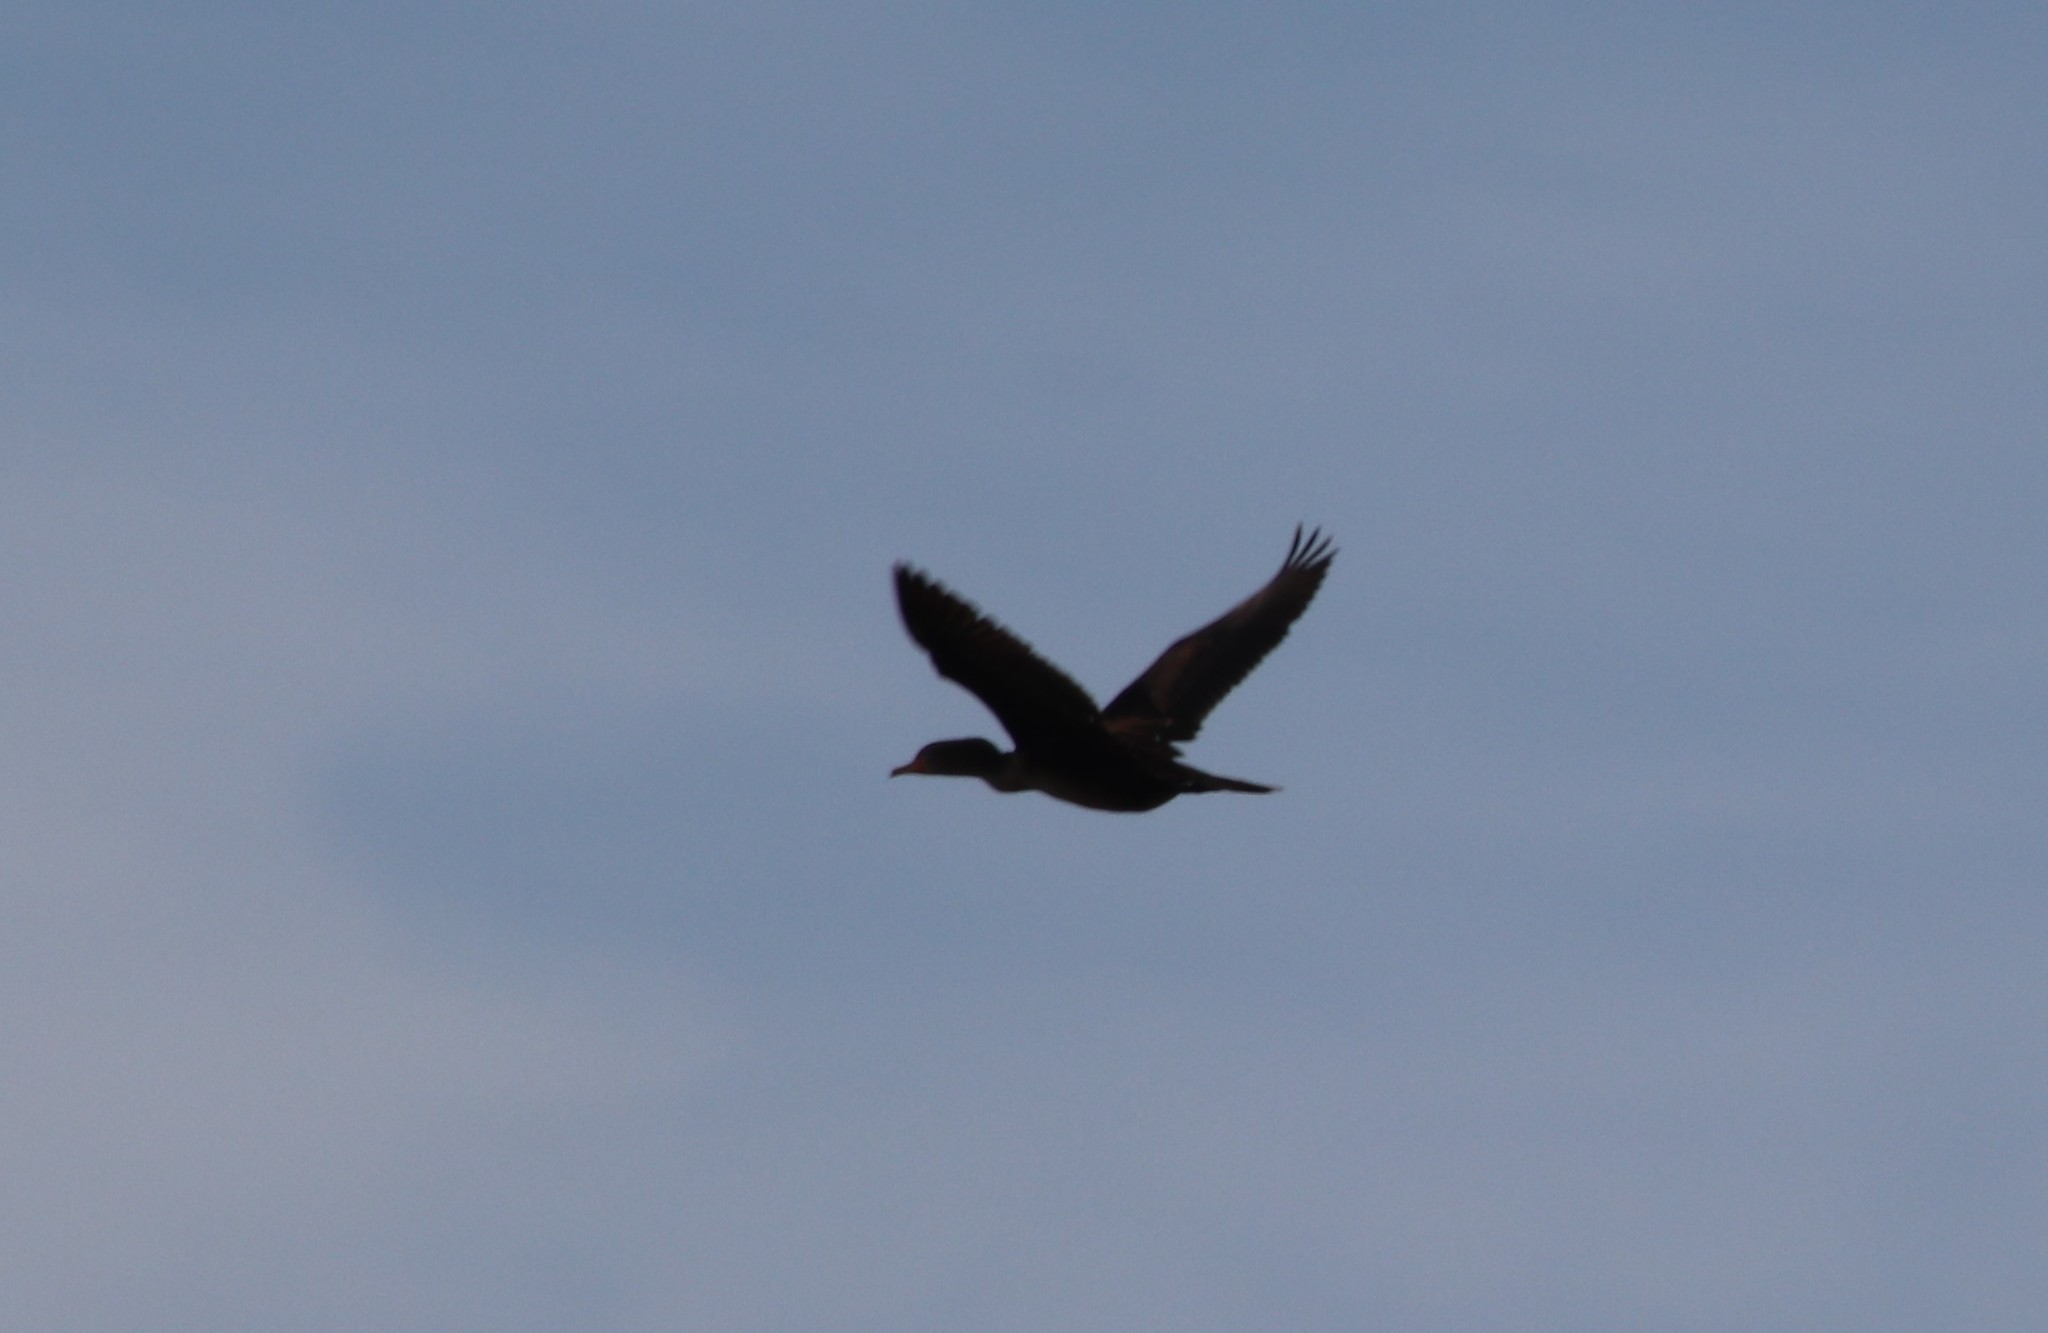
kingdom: Animalia
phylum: Chordata
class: Aves
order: Suliformes
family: Phalacrocoracidae
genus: Phalacrocorax
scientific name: Phalacrocorax auritus
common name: Double-crested cormorant
